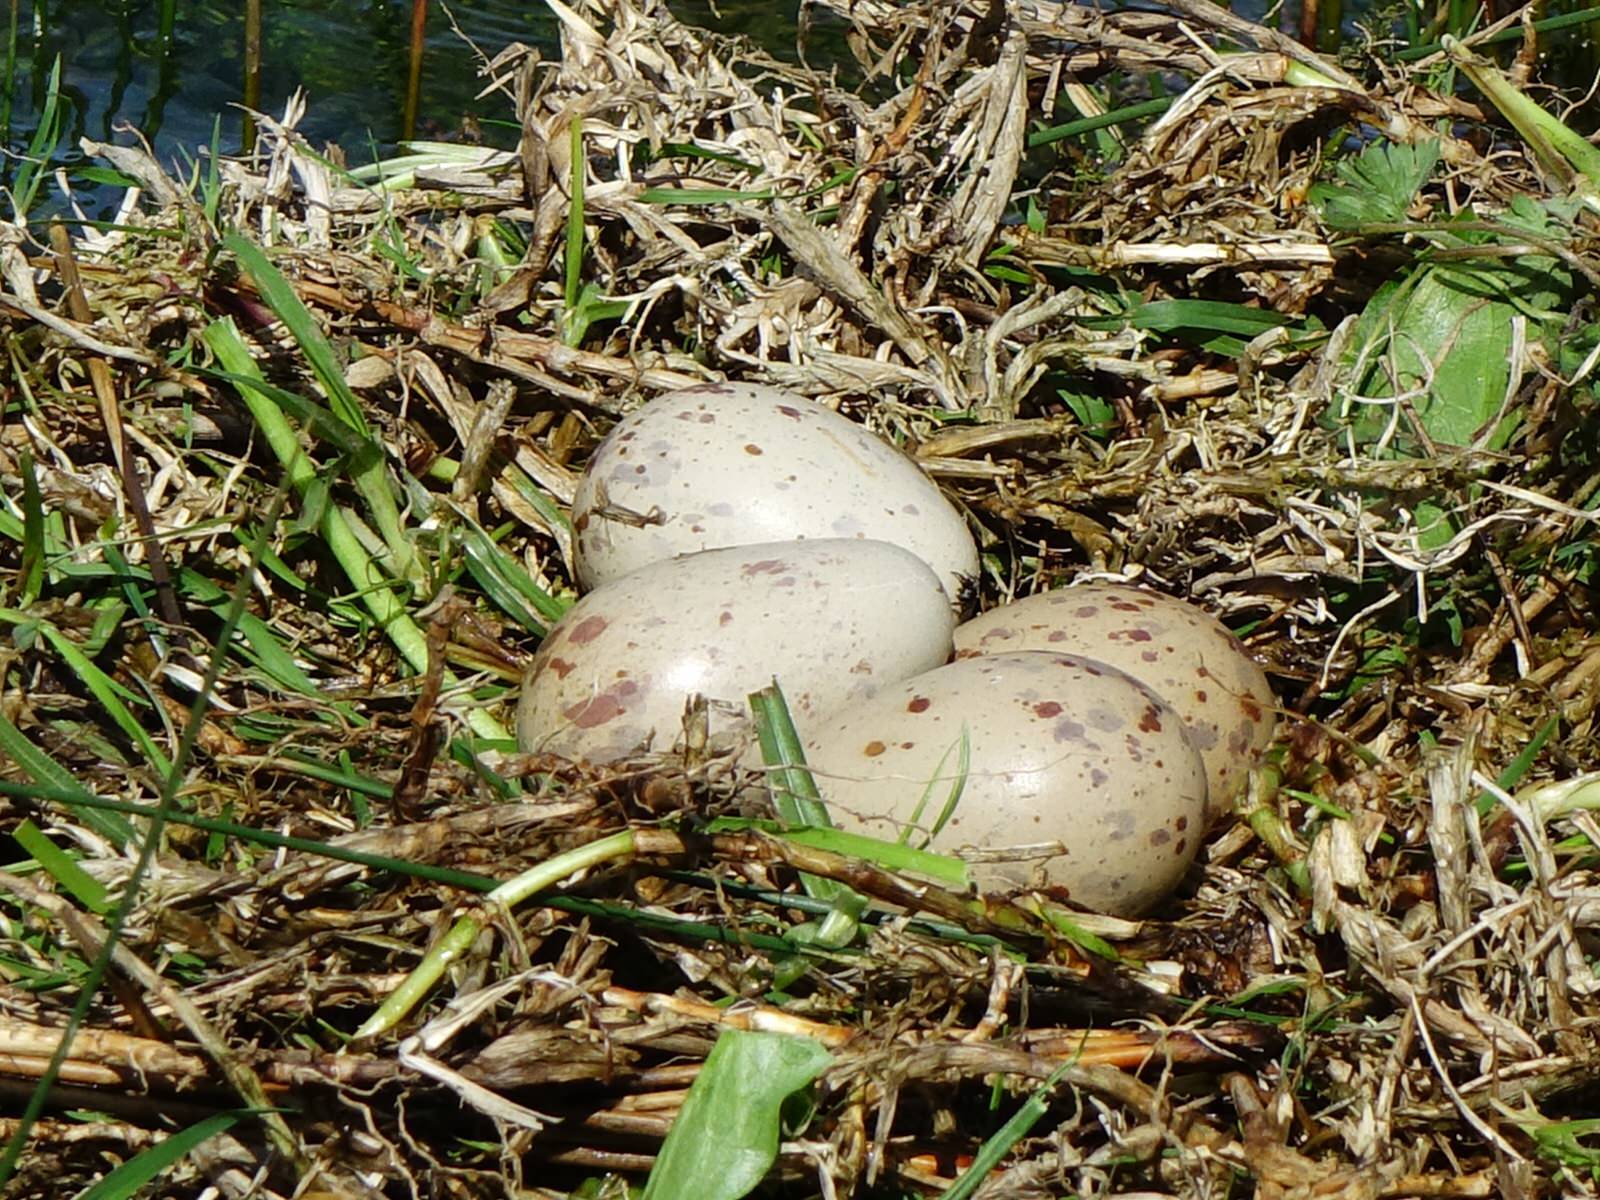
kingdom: Animalia
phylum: Chordata
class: Aves
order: Gruiformes
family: Rallidae
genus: Porphyrio
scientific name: Porphyrio melanotus
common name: Australasian swamphen
